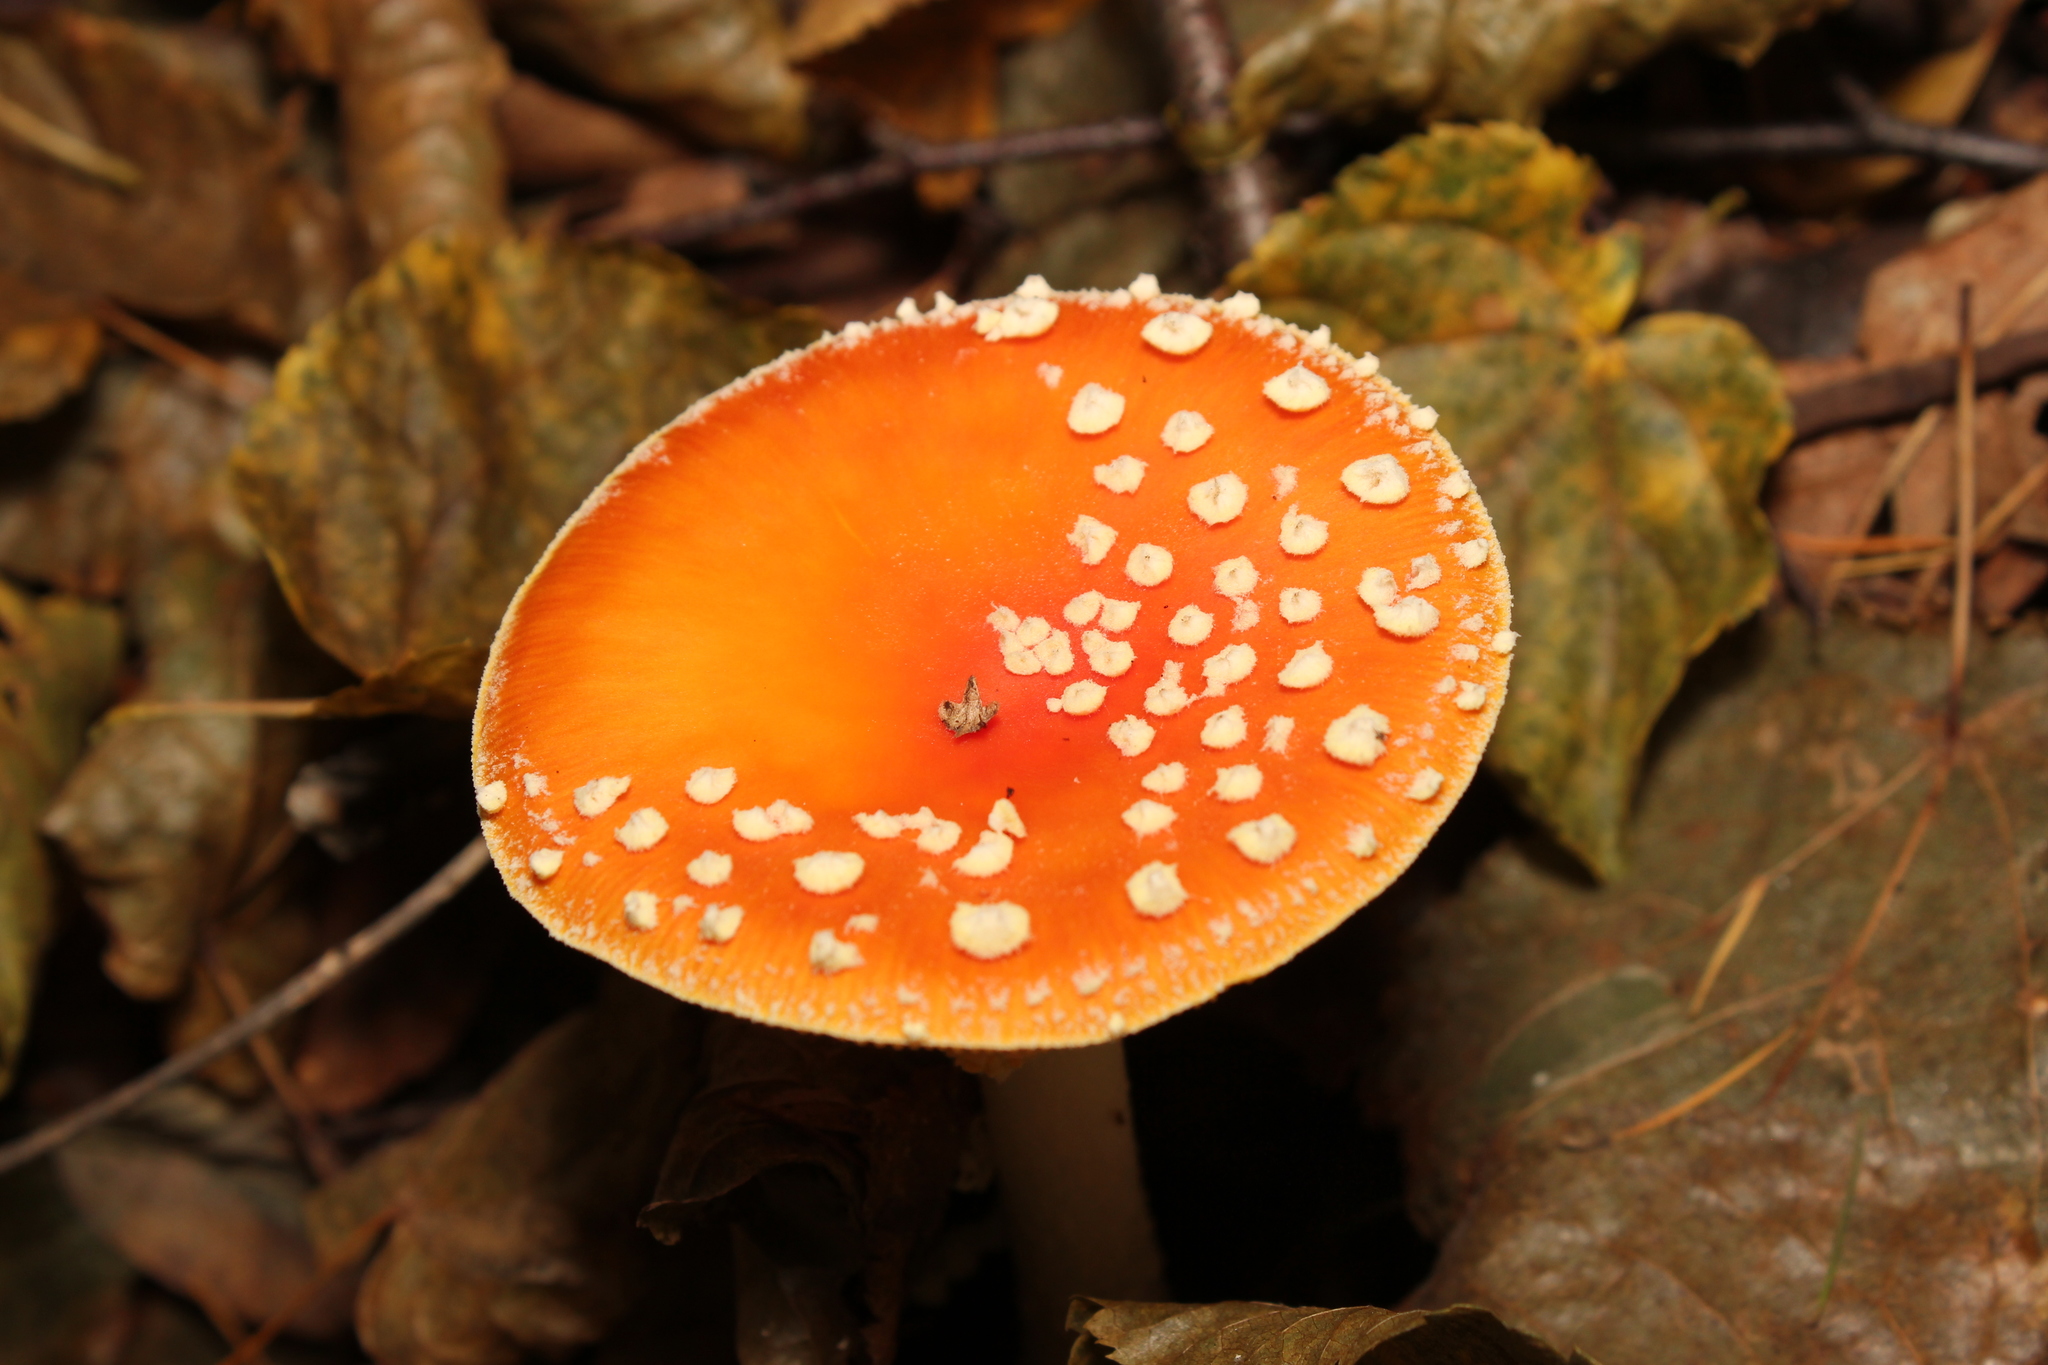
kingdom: Fungi
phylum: Basidiomycota
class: Agaricomycetes
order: Agaricales
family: Amanitaceae
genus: Amanita
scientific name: Amanita muscaria
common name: Fly agaric
